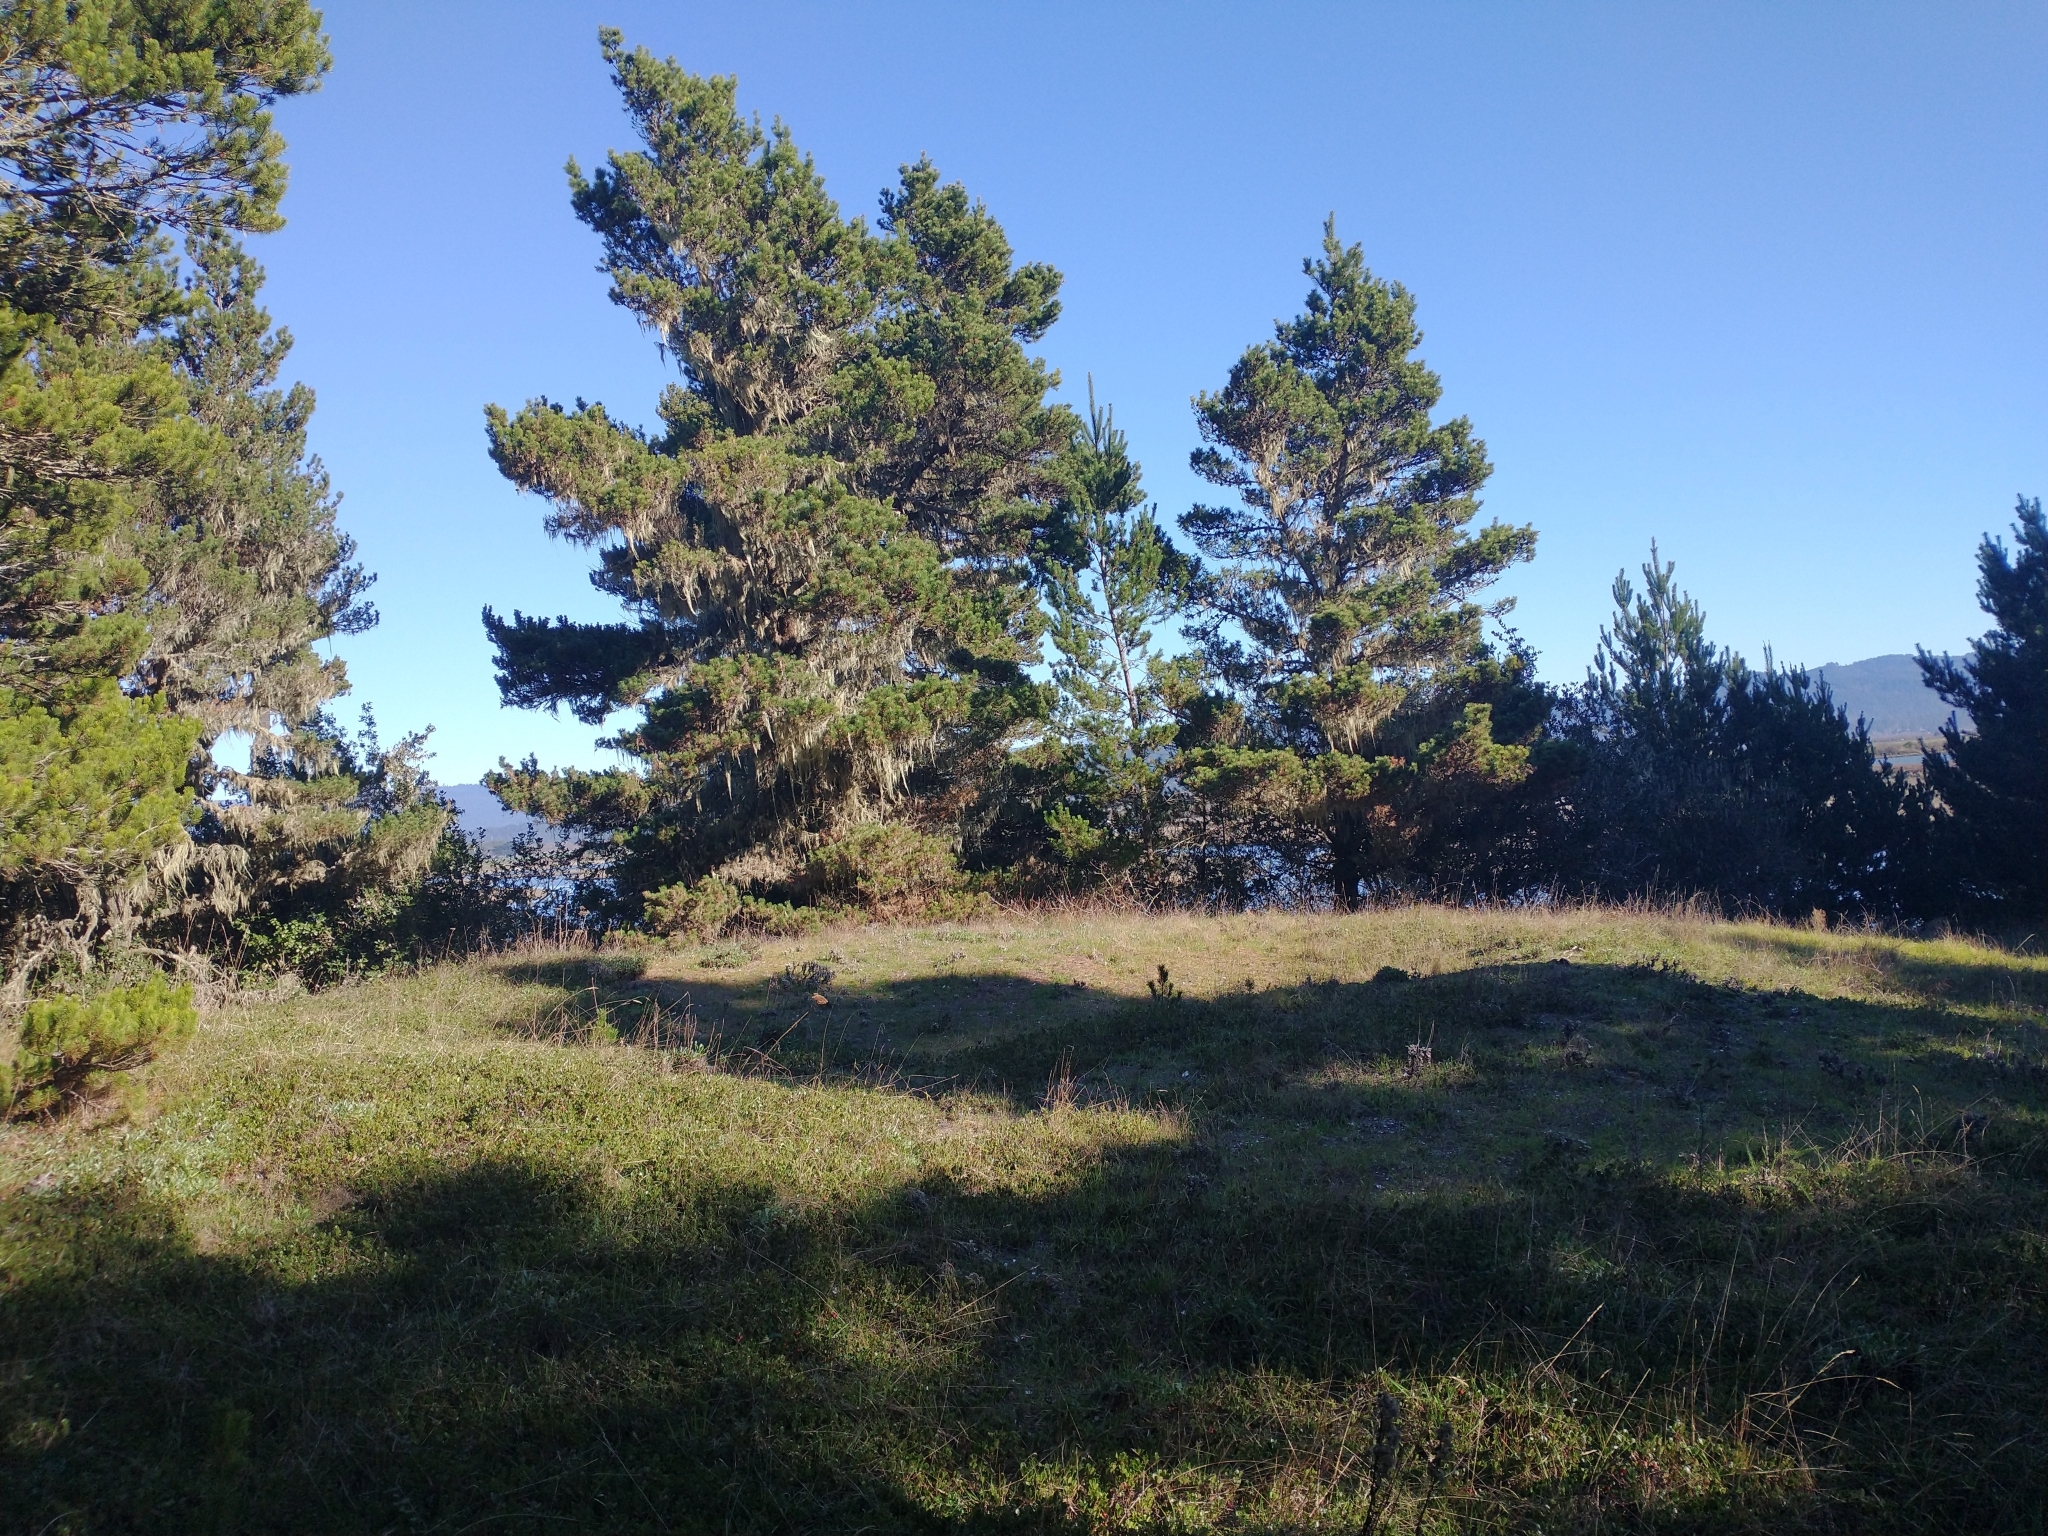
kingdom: Plantae
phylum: Tracheophyta
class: Pinopsida
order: Pinales
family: Pinaceae
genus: Pinus
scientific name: Pinus contorta
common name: Lodgepole pine
